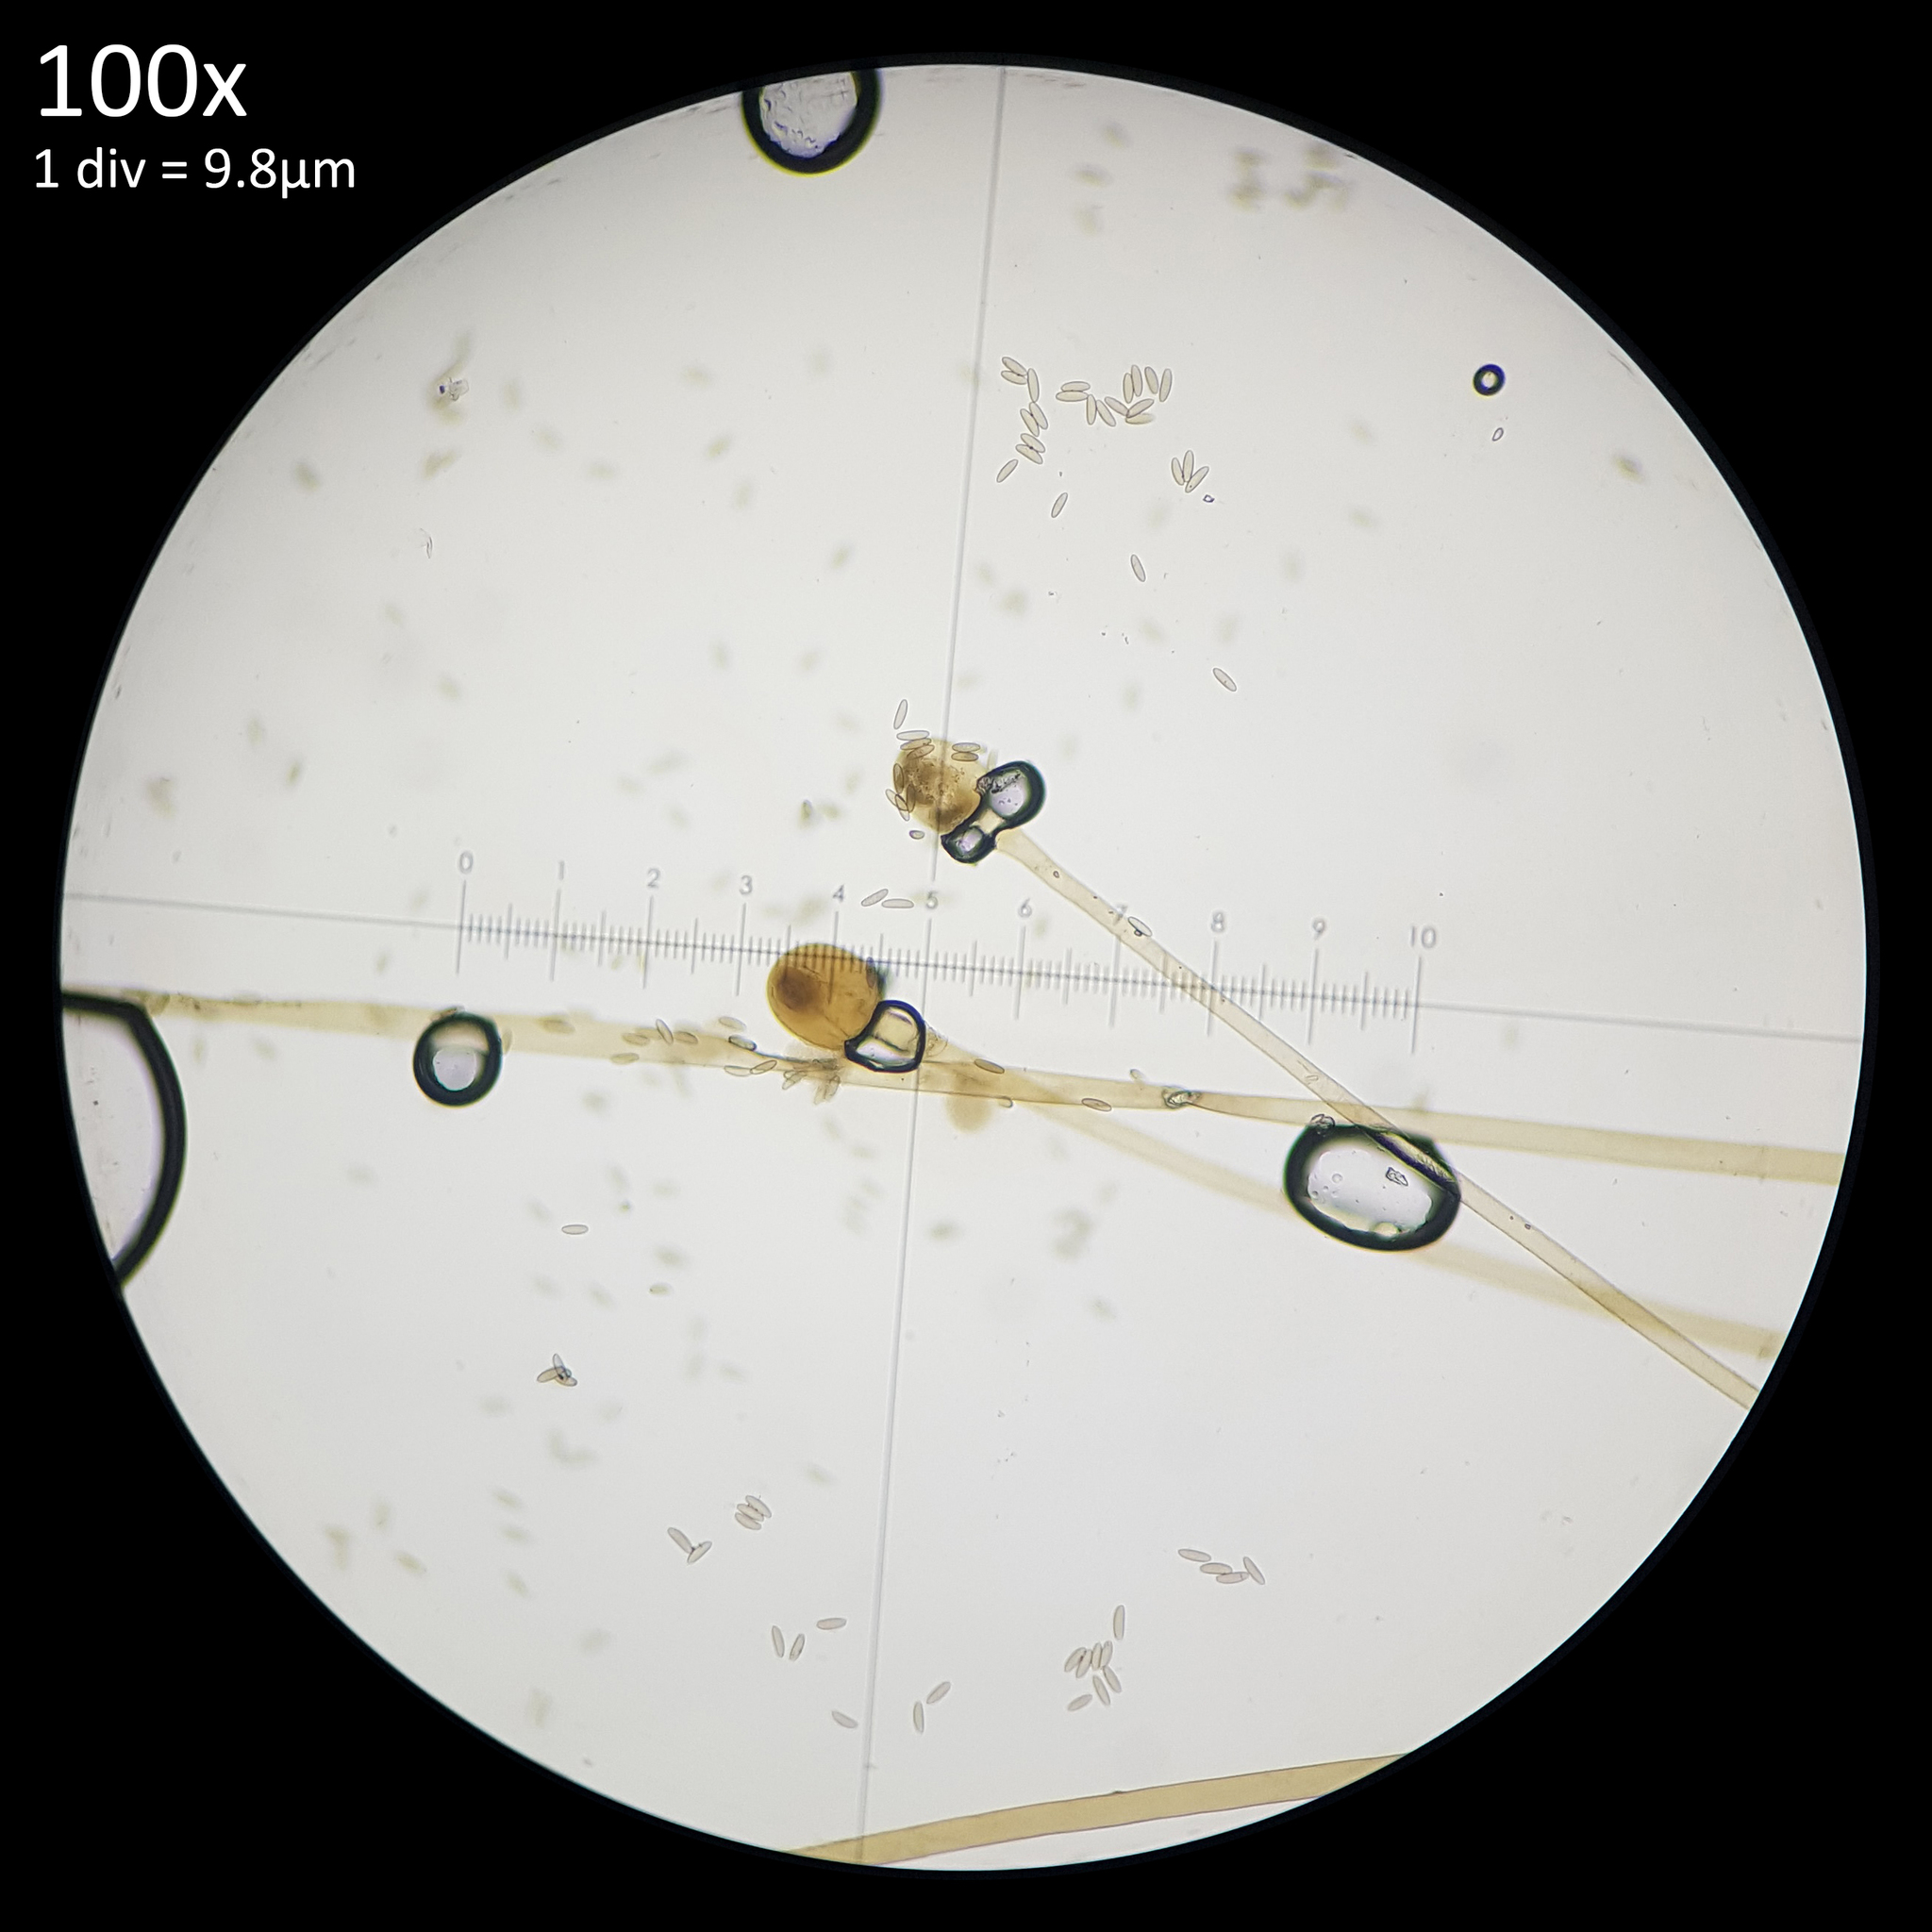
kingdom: Fungi
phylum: Mucoromycota
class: Mucoromycetes
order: Mucorales
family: Phycomycetaceae
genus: Spinellus
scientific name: Spinellus fusiger
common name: Bonnet mould
